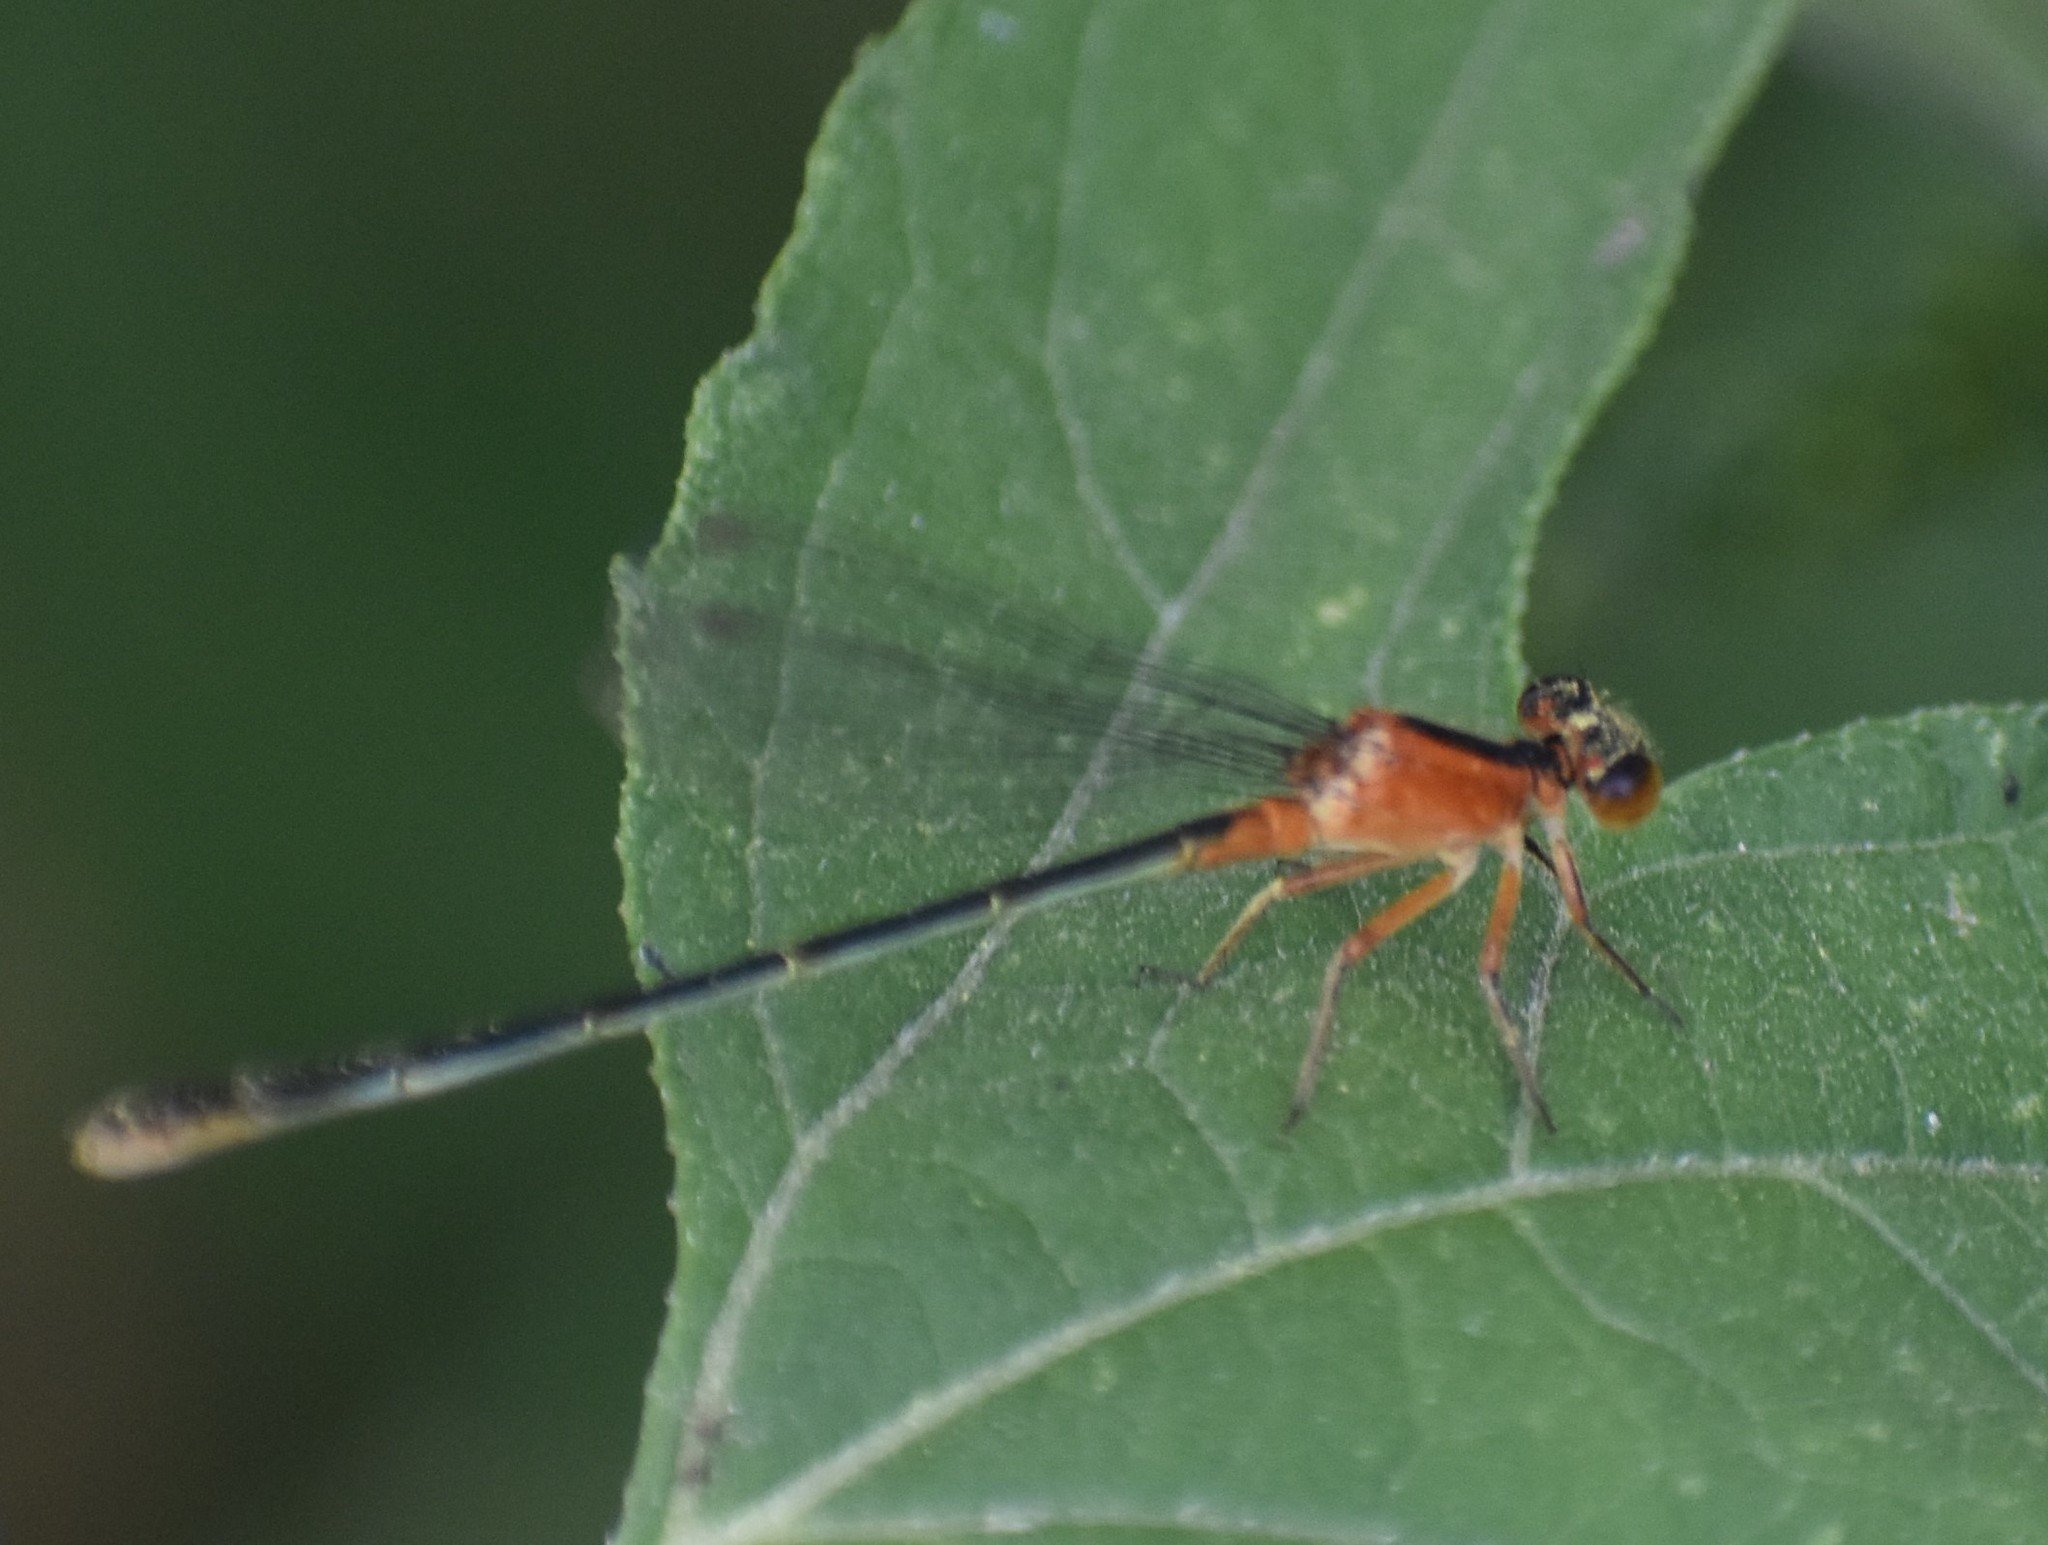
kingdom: Animalia
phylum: Arthropoda
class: Insecta
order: Odonata
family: Coenagrionidae
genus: Ischnura
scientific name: Ischnura ramburii
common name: Rambur's forktail
